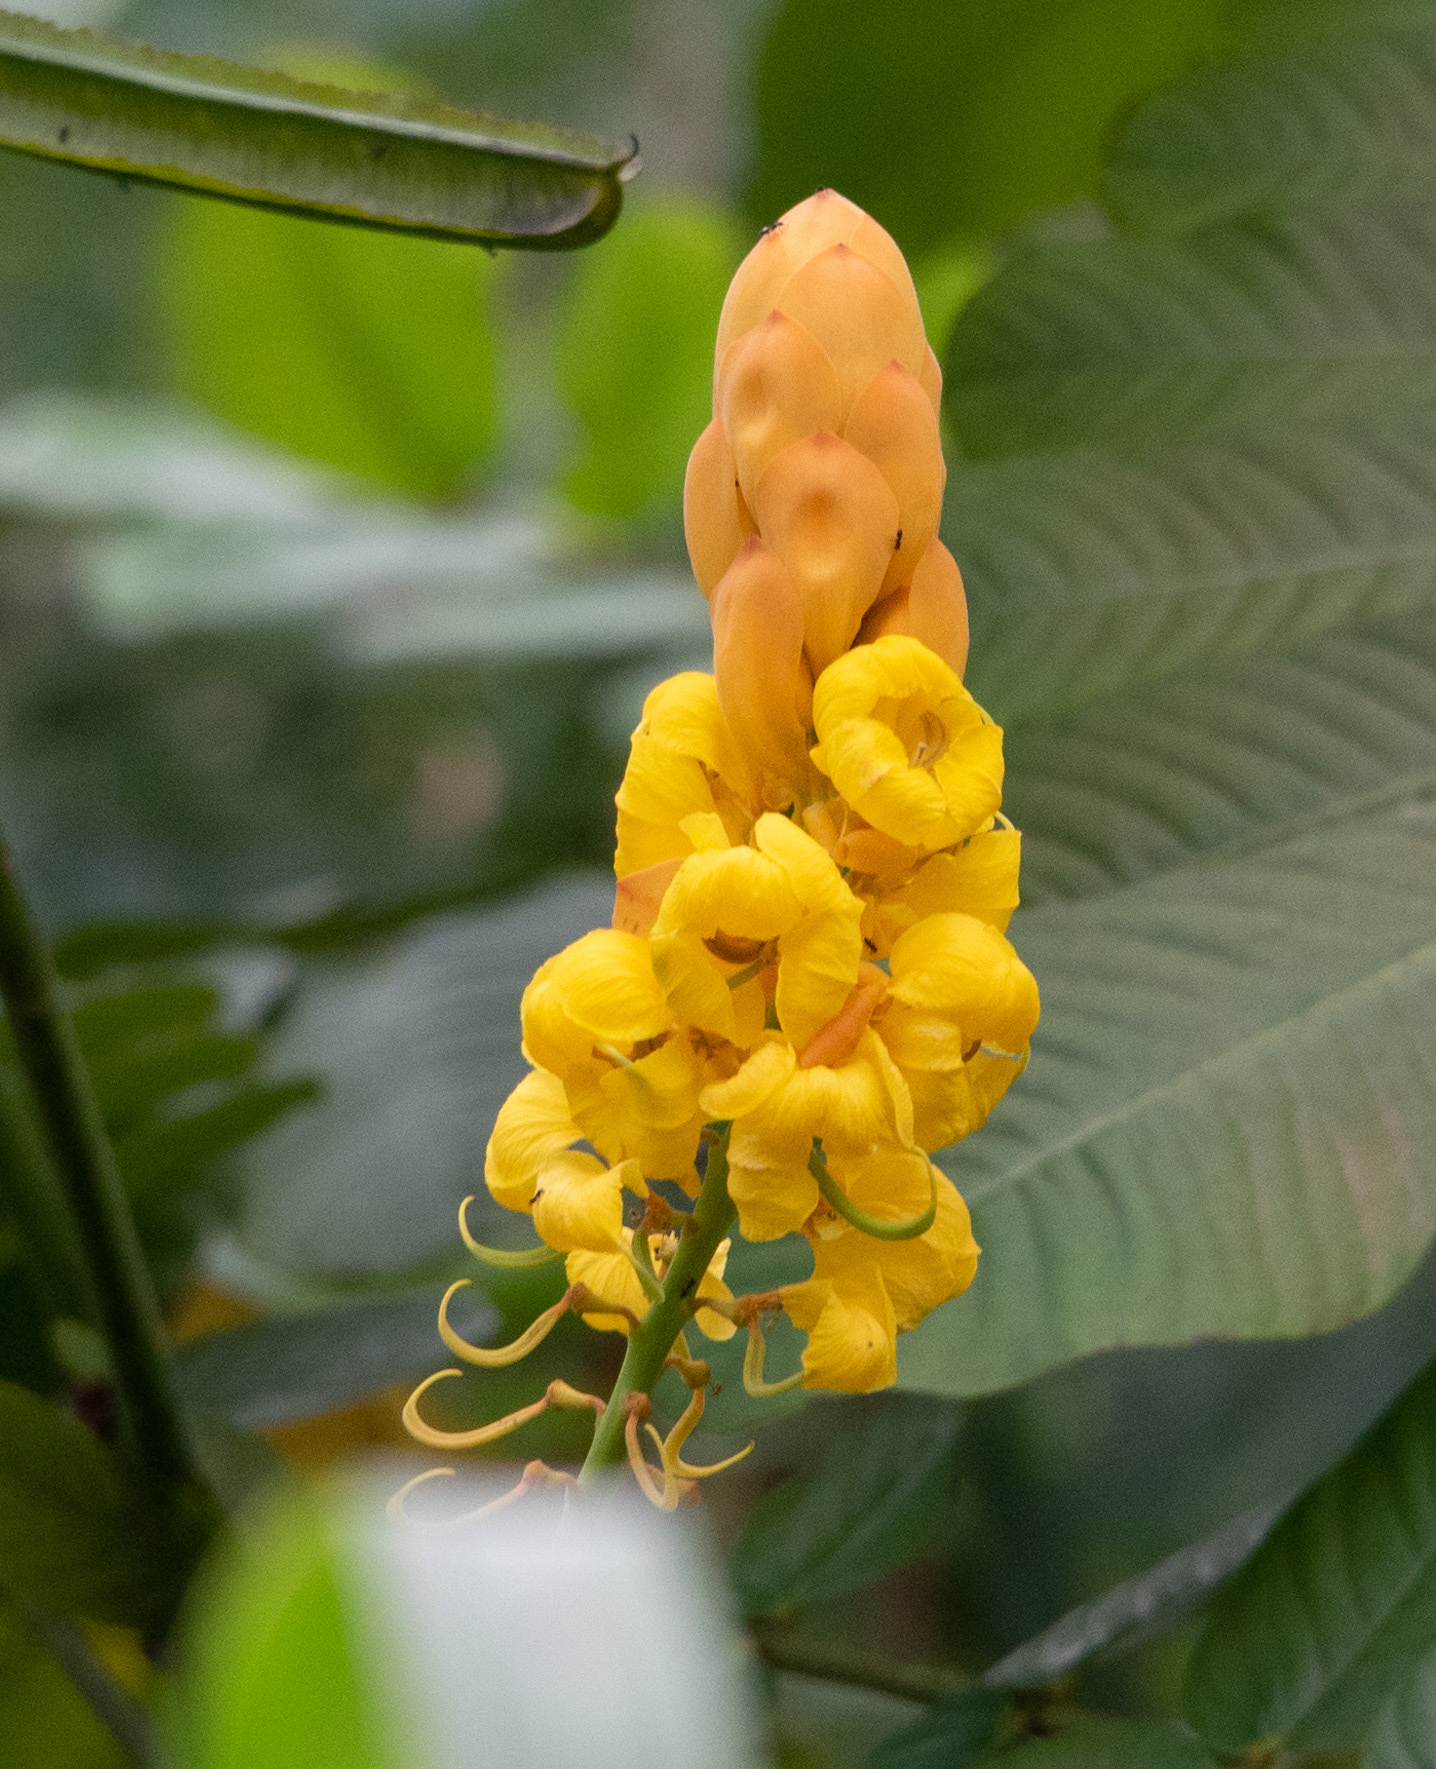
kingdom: Plantae
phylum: Tracheophyta
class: Magnoliopsida
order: Fabales
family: Fabaceae
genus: Senna
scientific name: Senna alata
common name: Emperor's candlesticks
